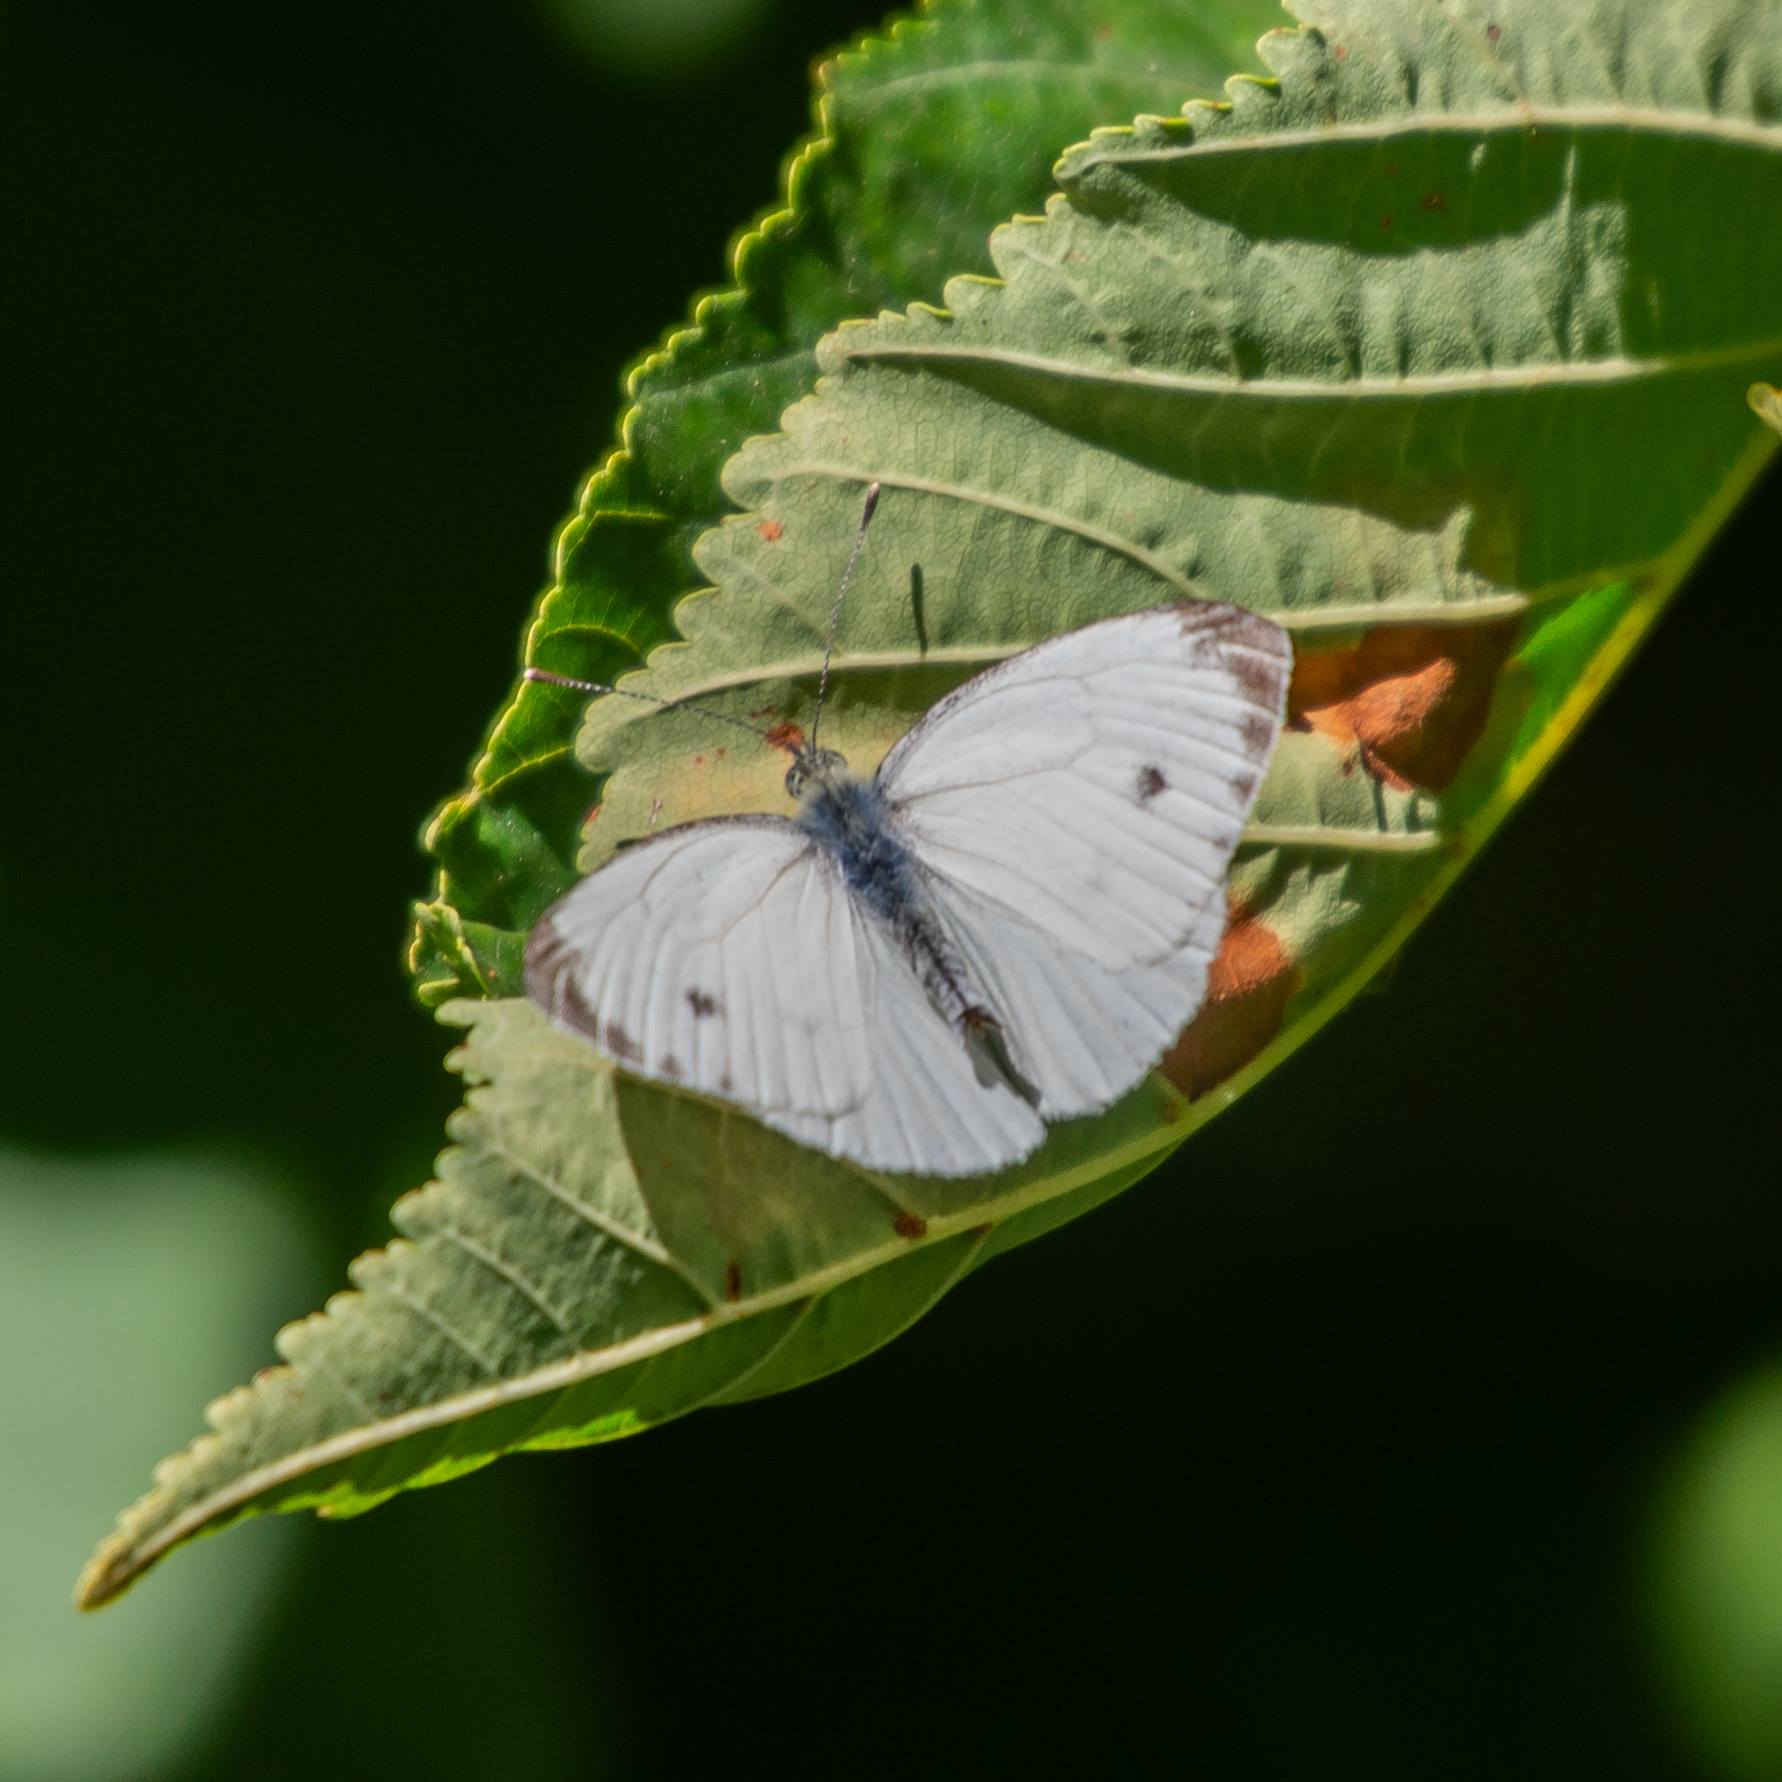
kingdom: Animalia
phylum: Arthropoda
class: Insecta
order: Lepidoptera
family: Pieridae
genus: Pieris
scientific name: Pieris napi
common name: Green-veined white
